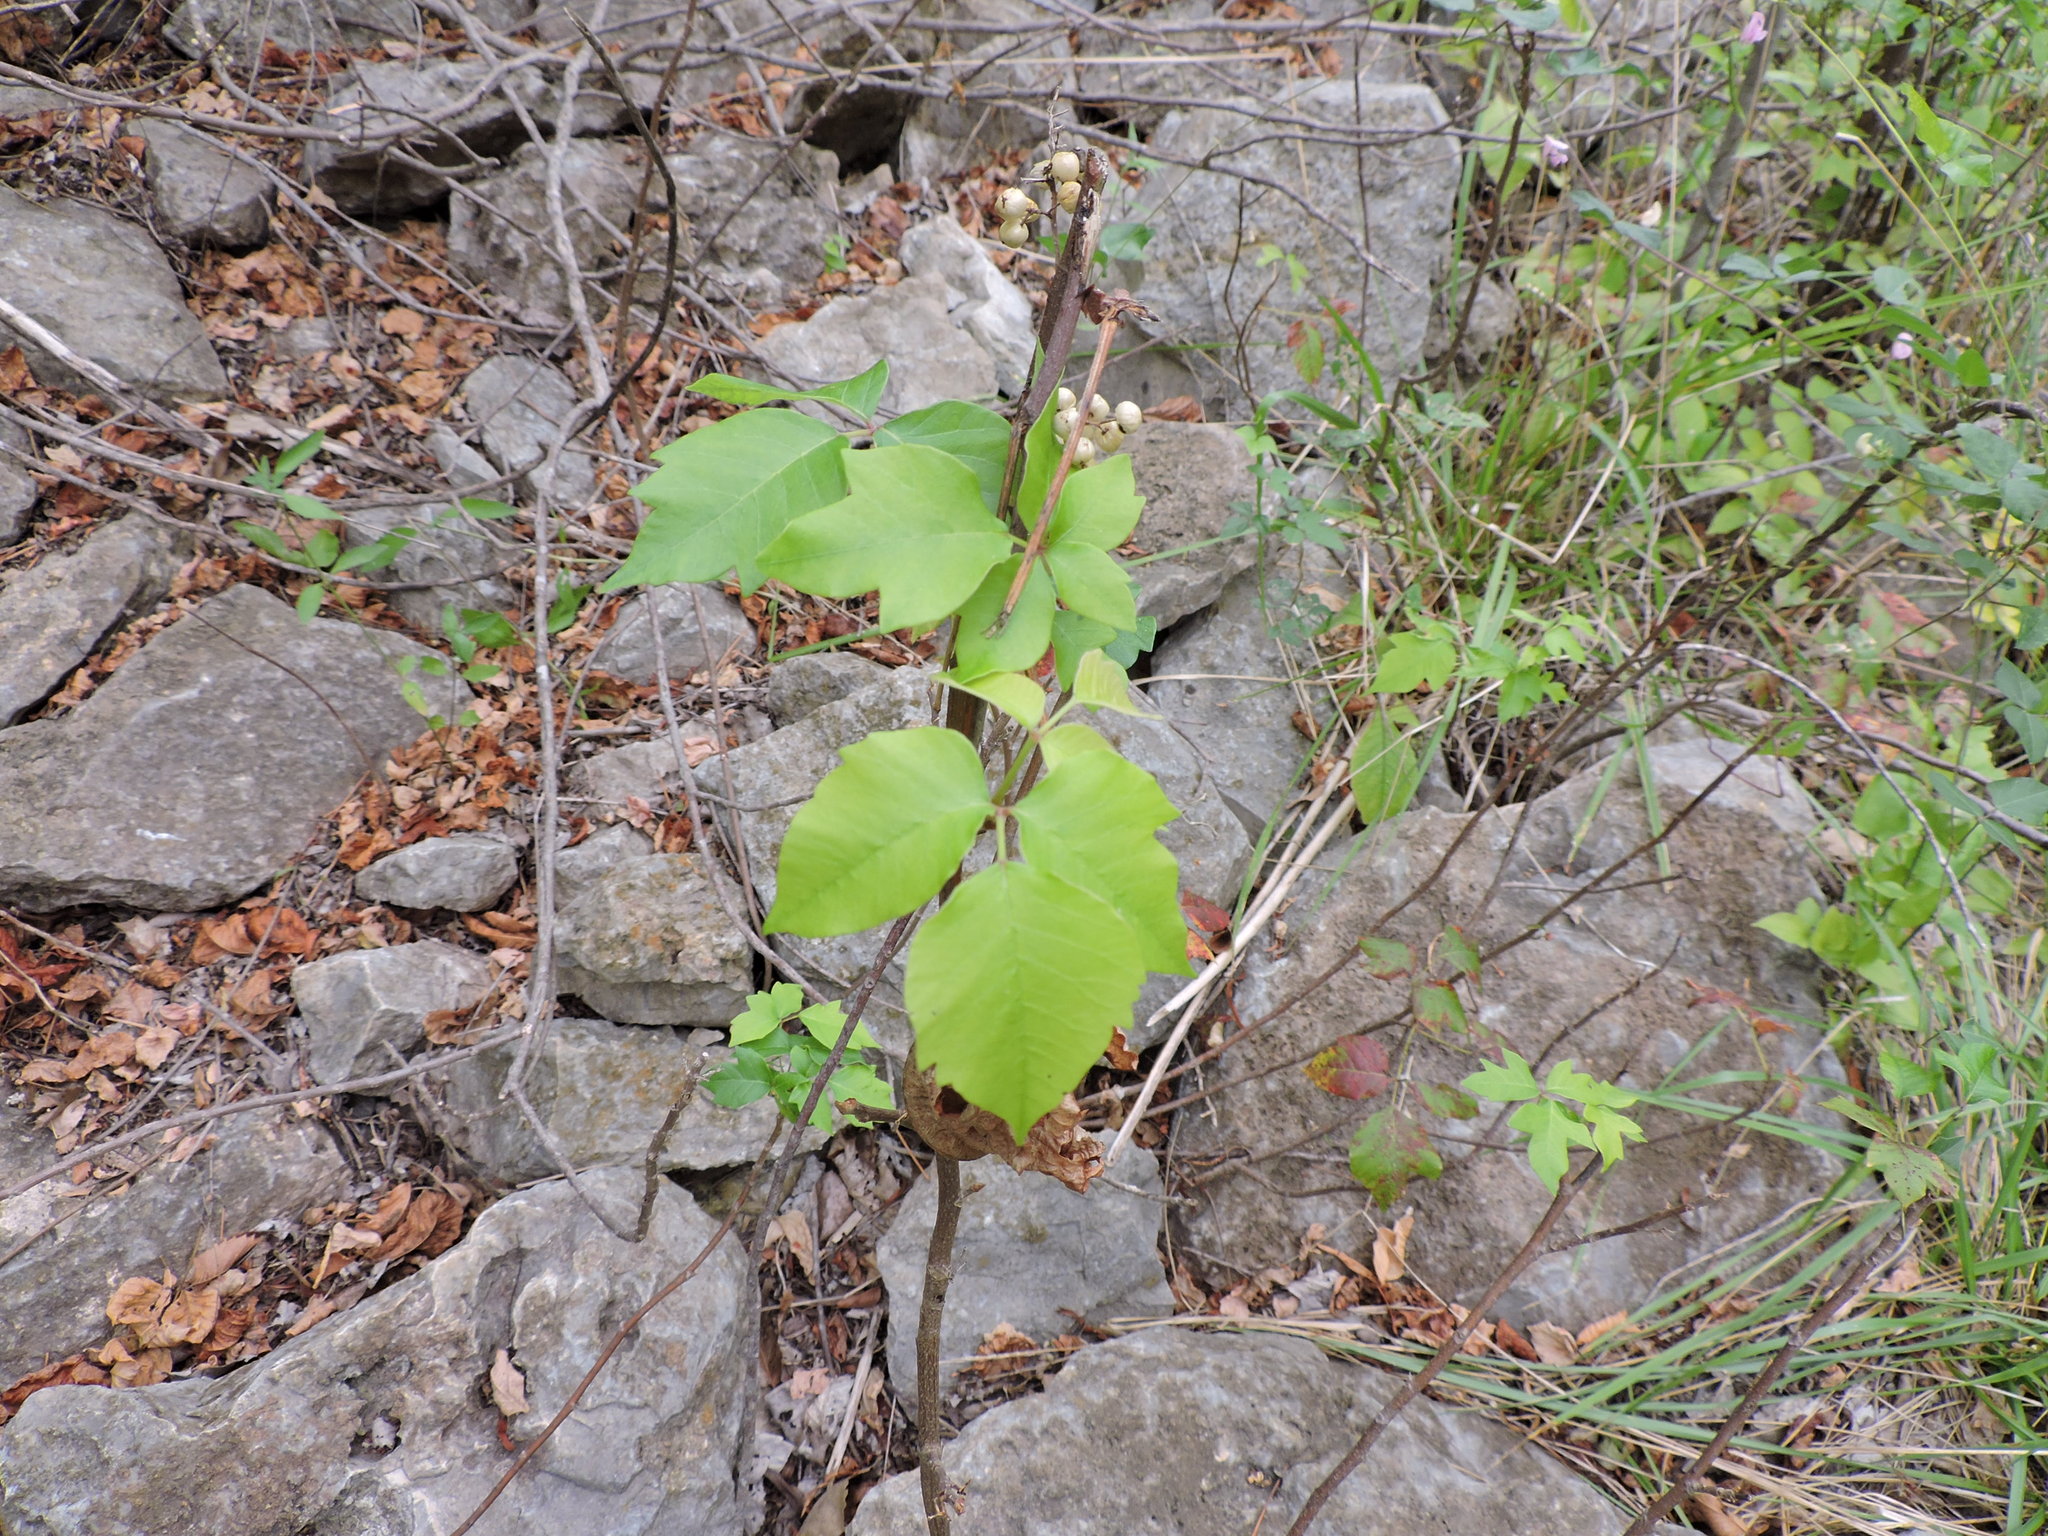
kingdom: Plantae
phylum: Tracheophyta
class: Magnoliopsida
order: Sapindales
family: Anacardiaceae
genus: Toxicodendron
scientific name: Toxicodendron radicans
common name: Poison ivy
